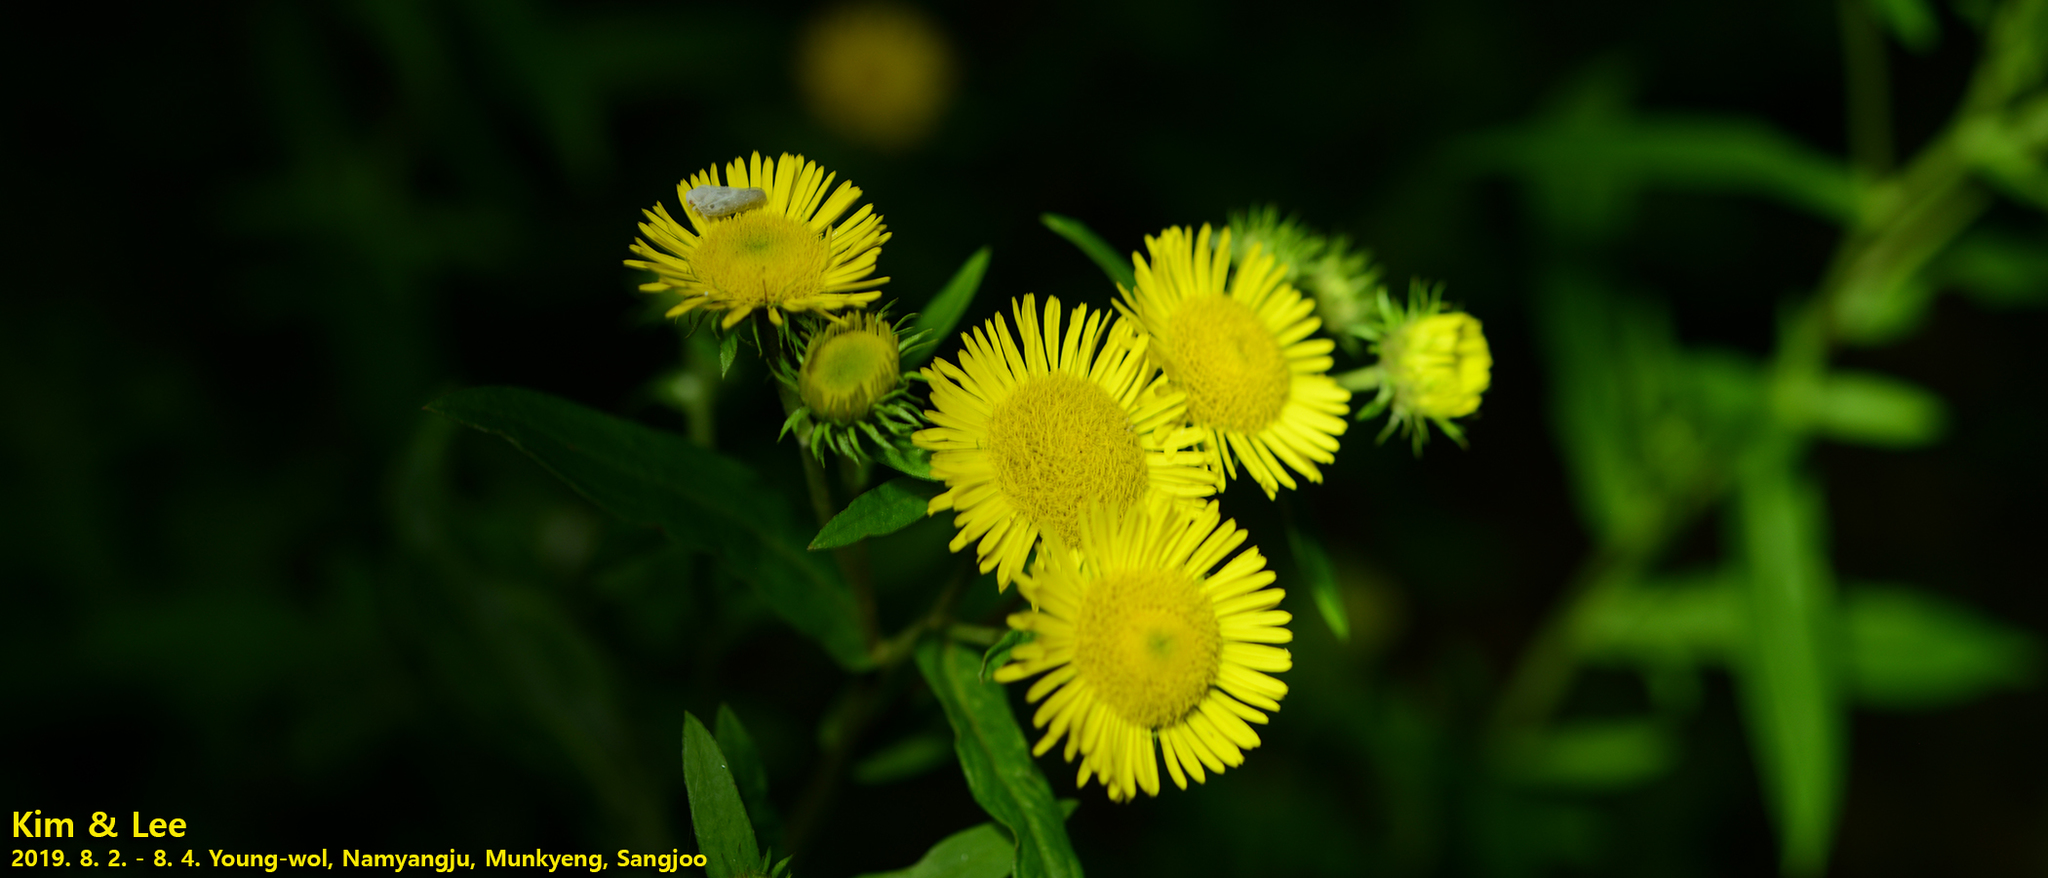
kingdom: Plantae
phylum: Tracheophyta
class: Magnoliopsida
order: Asterales
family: Asteraceae
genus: Pentanema
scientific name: Pentanema britannicum
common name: British elecampane
